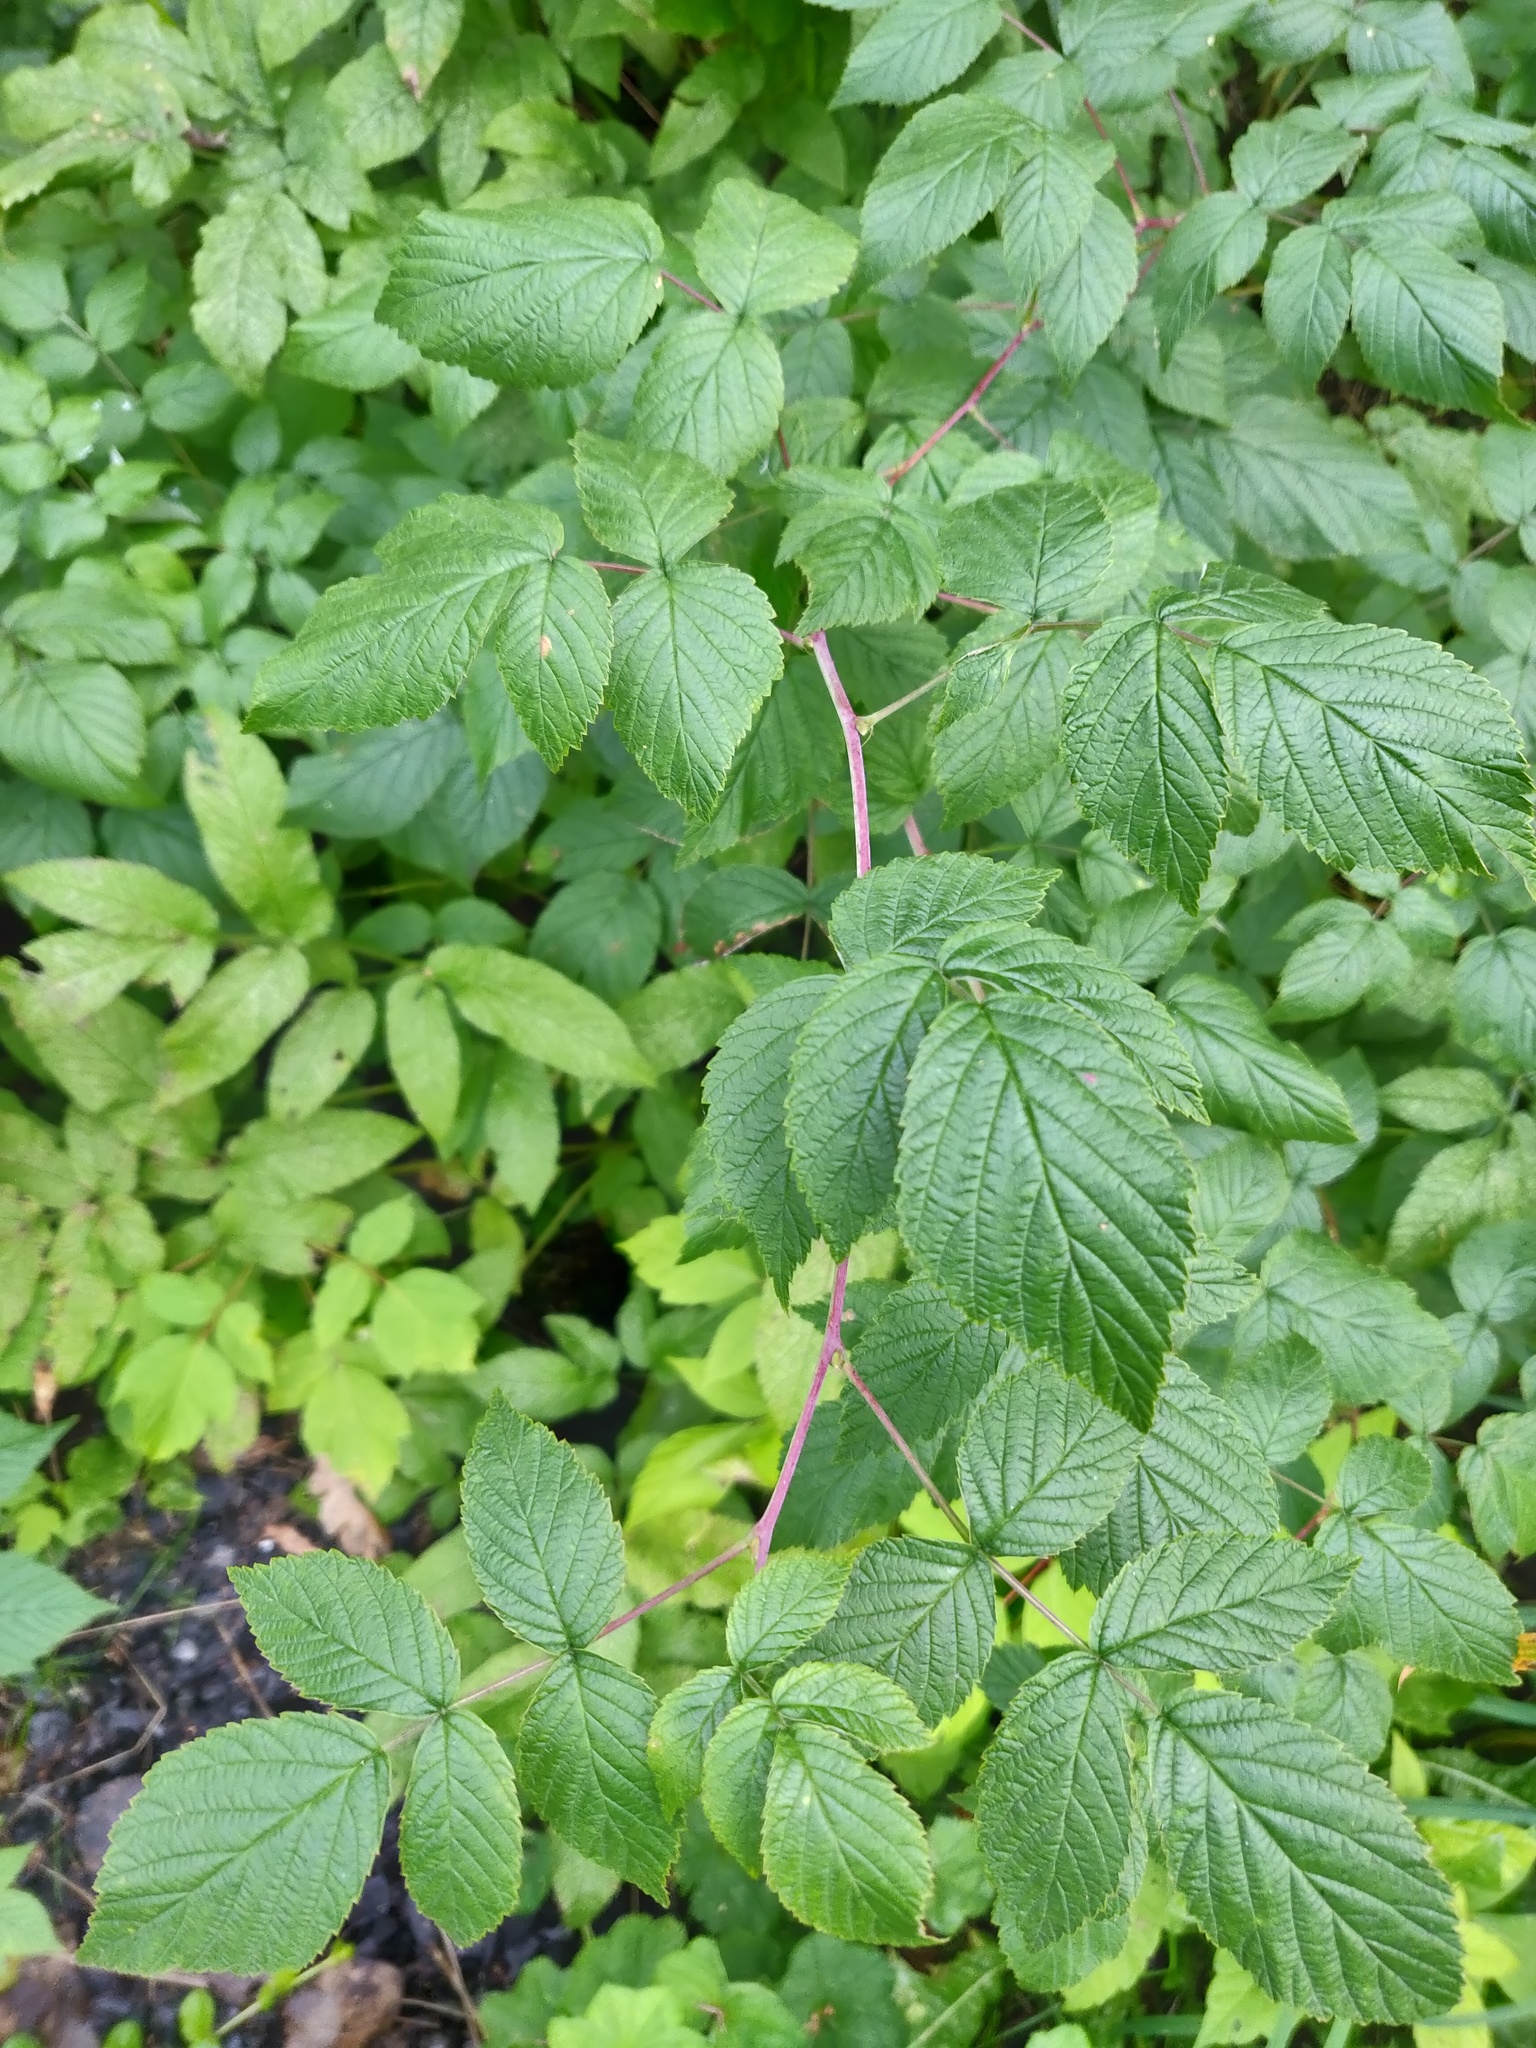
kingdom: Plantae
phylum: Tracheophyta
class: Magnoliopsida
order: Rosales
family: Rosaceae
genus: Rubus
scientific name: Rubus idaeus
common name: Raspberry
